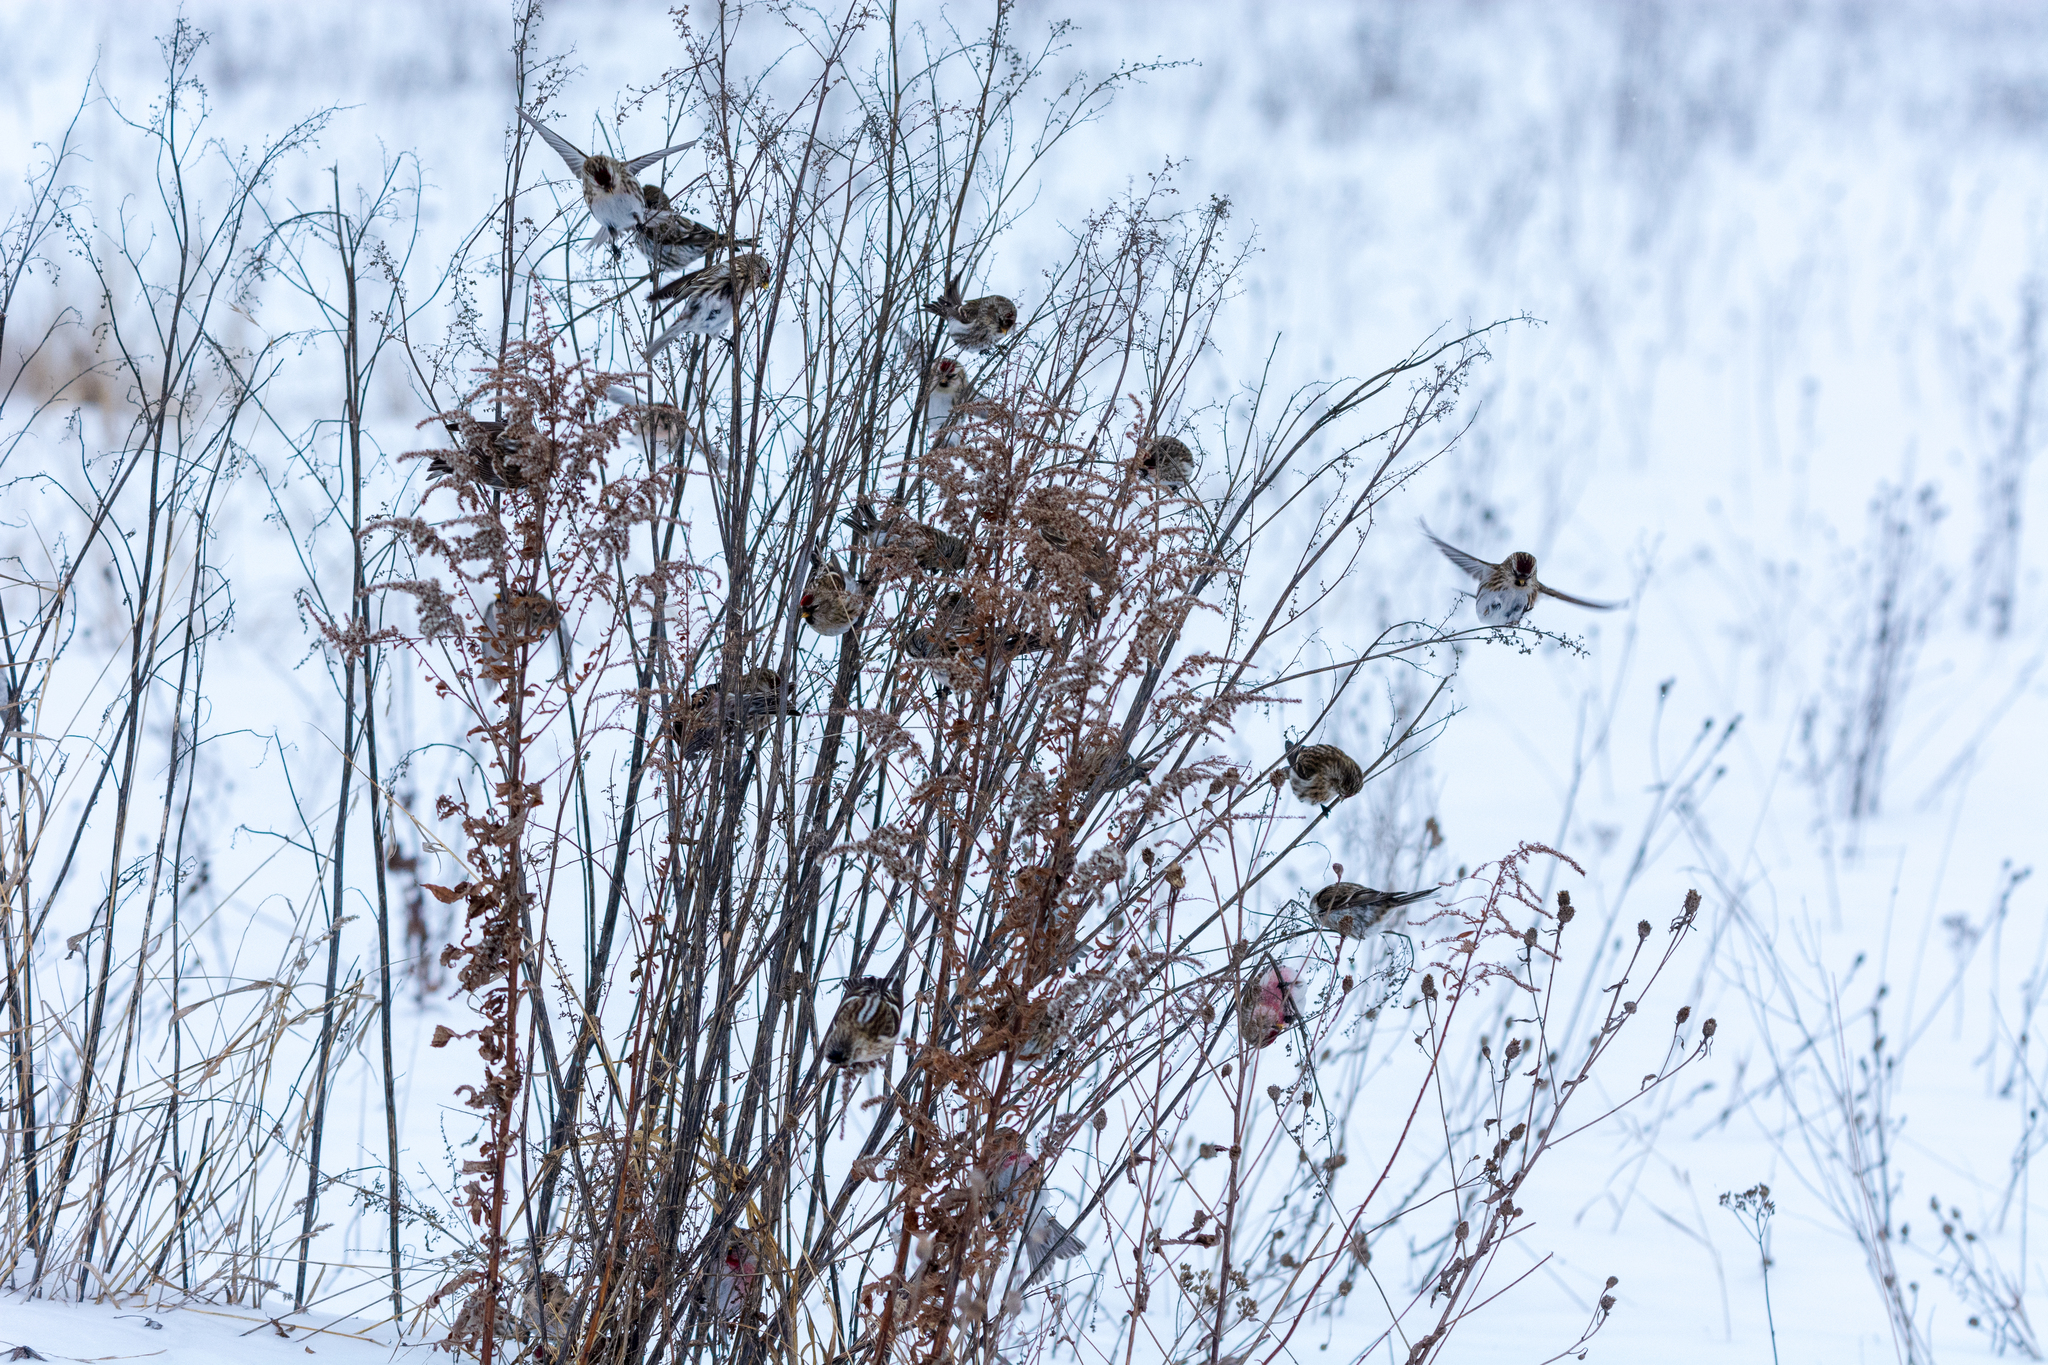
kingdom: Animalia
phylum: Chordata
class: Aves
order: Passeriformes
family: Fringillidae
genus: Acanthis
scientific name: Acanthis flammea
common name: Common redpoll
